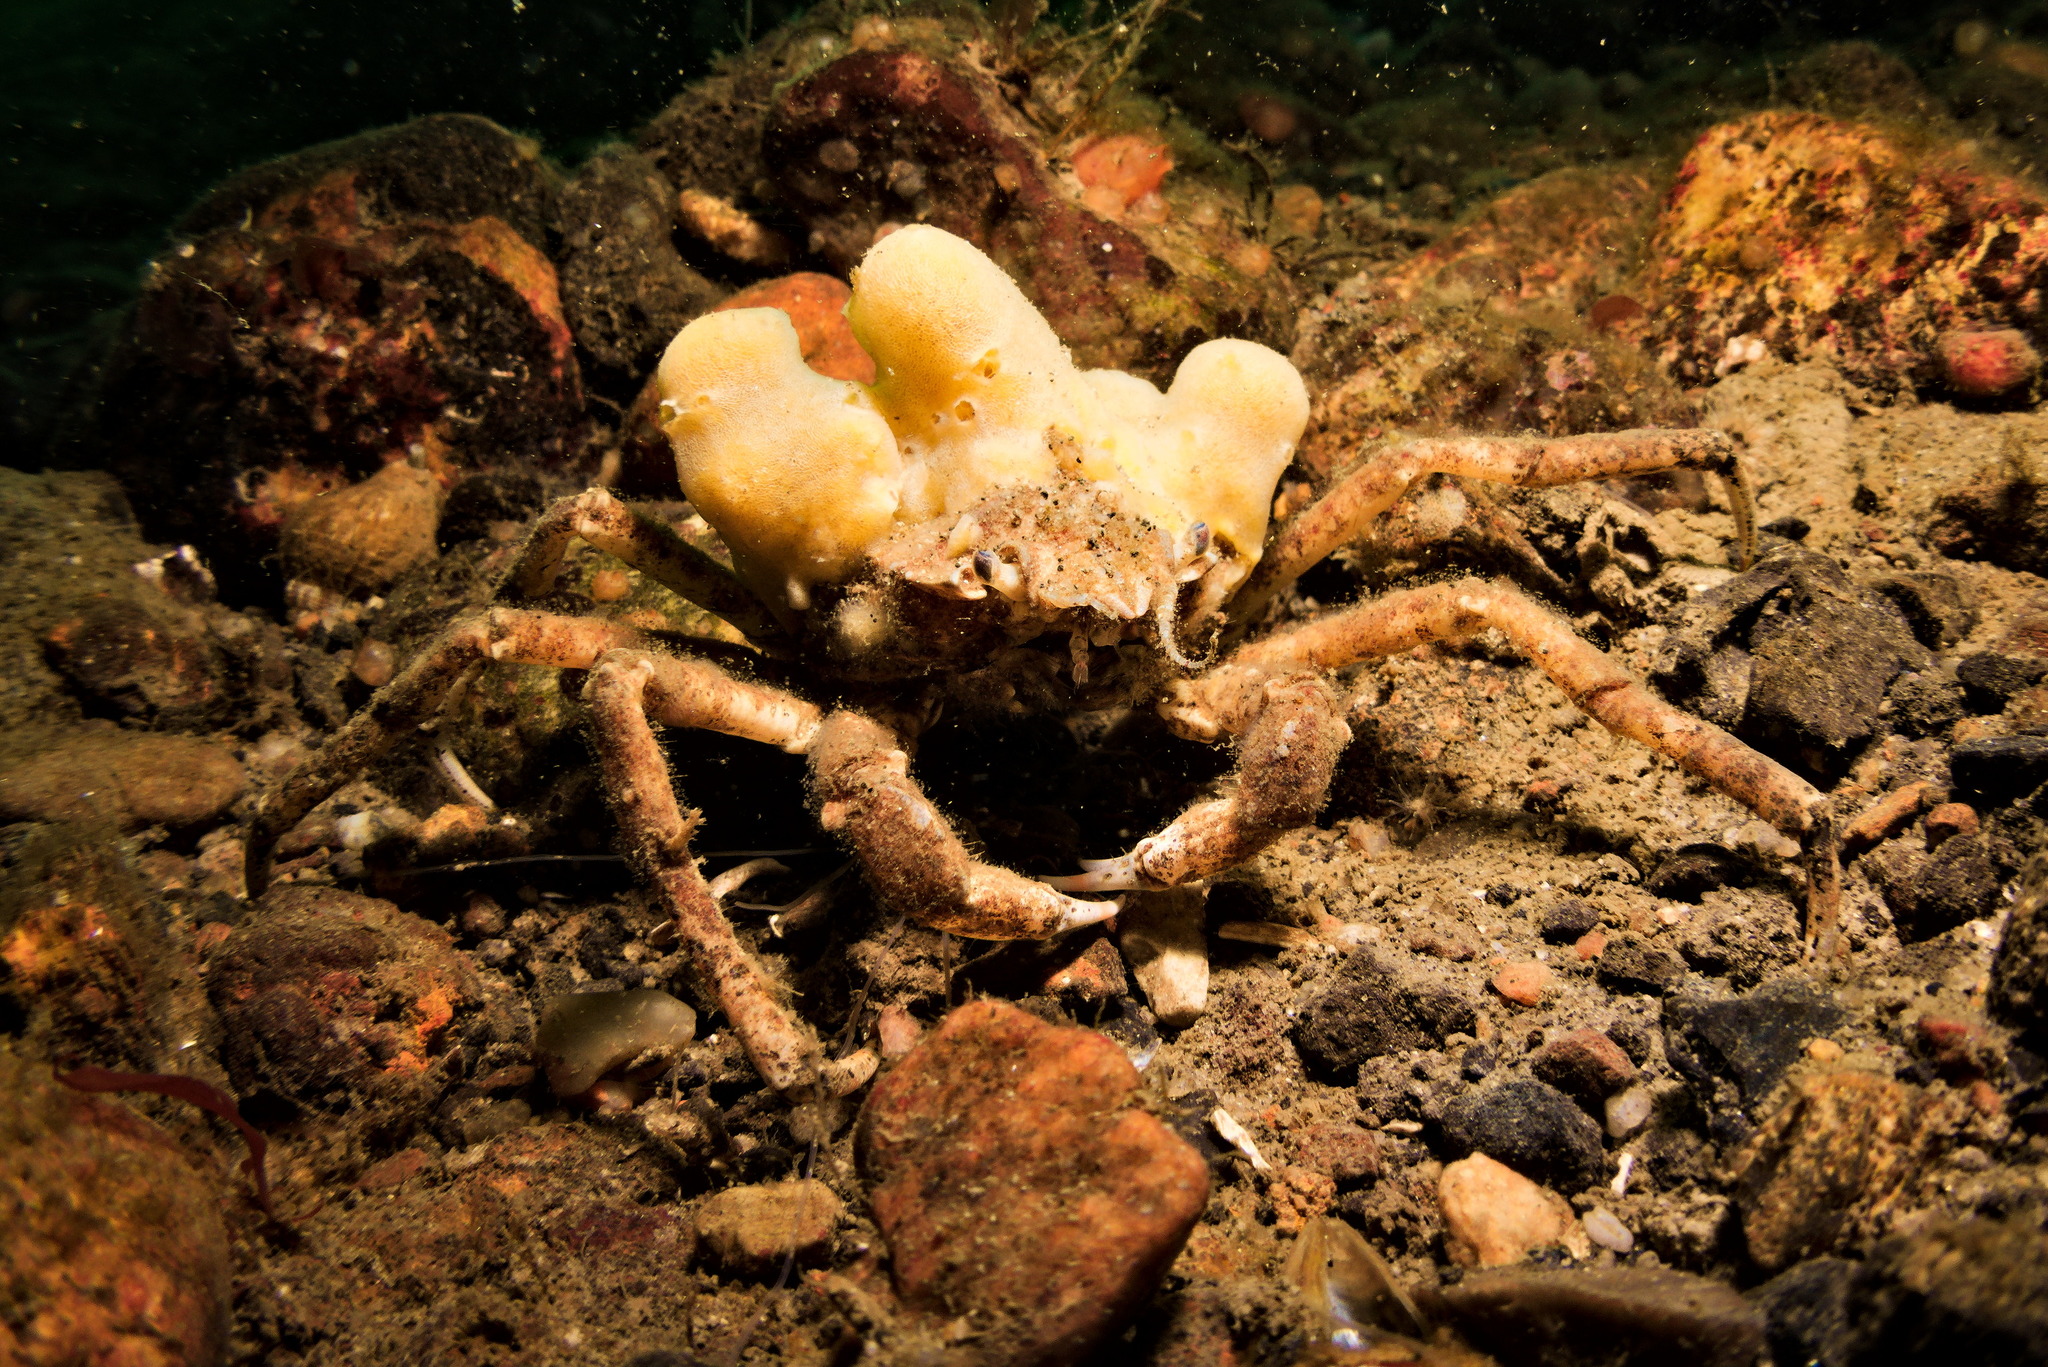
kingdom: Animalia
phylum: Arthropoda
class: Malacostraca
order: Decapoda
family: Oregoniidae
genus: Hyas
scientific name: Hyas araneus
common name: Great spider crab
